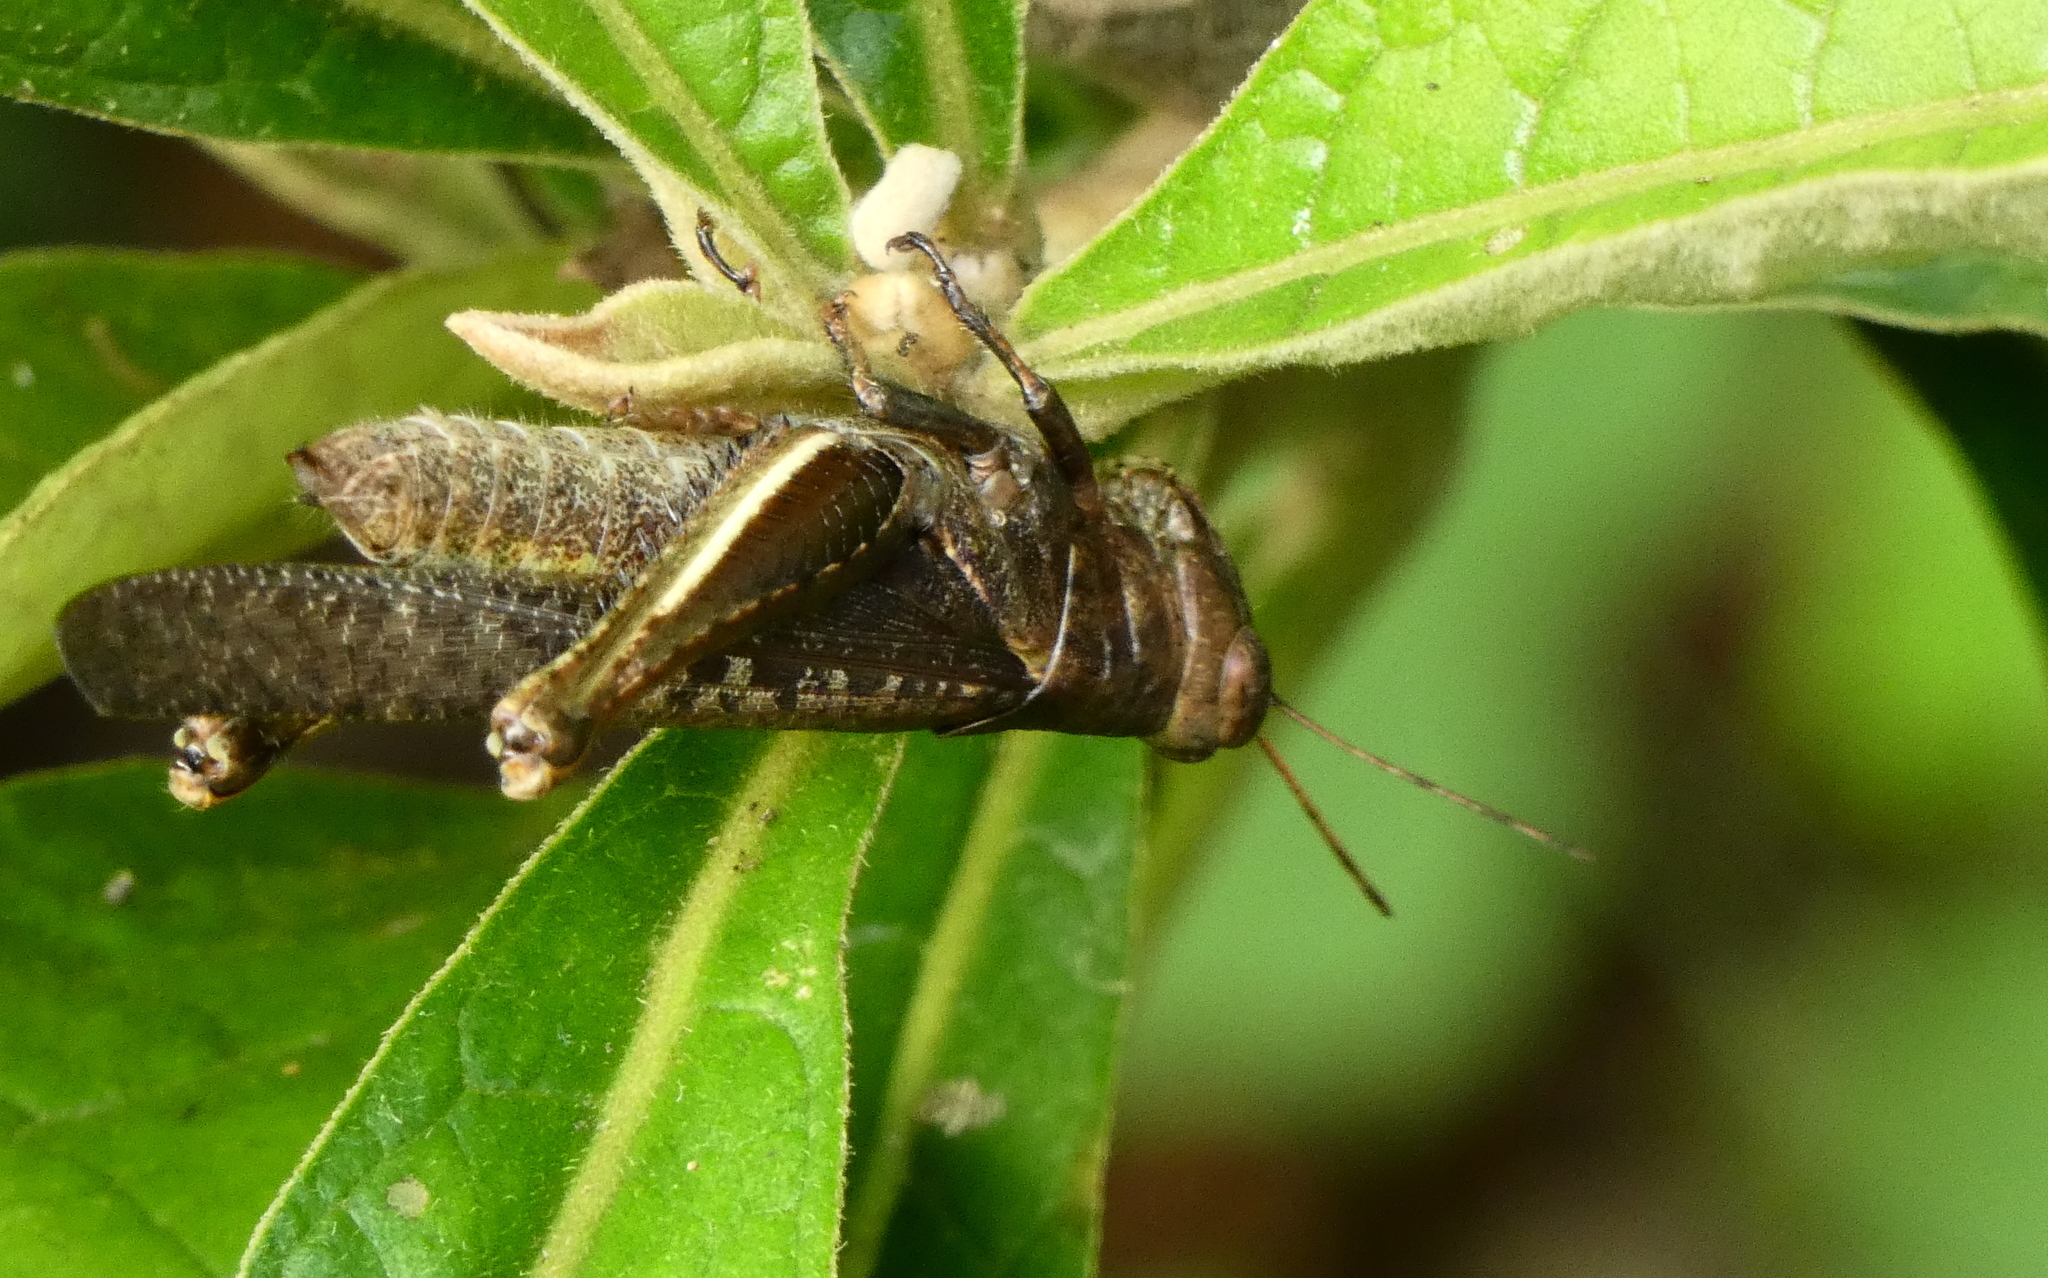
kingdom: Animalia
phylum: Arthropoda
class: Insecta
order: Orthoptera
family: Acrididae
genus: Abracris
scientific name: Abracris flavolineata
